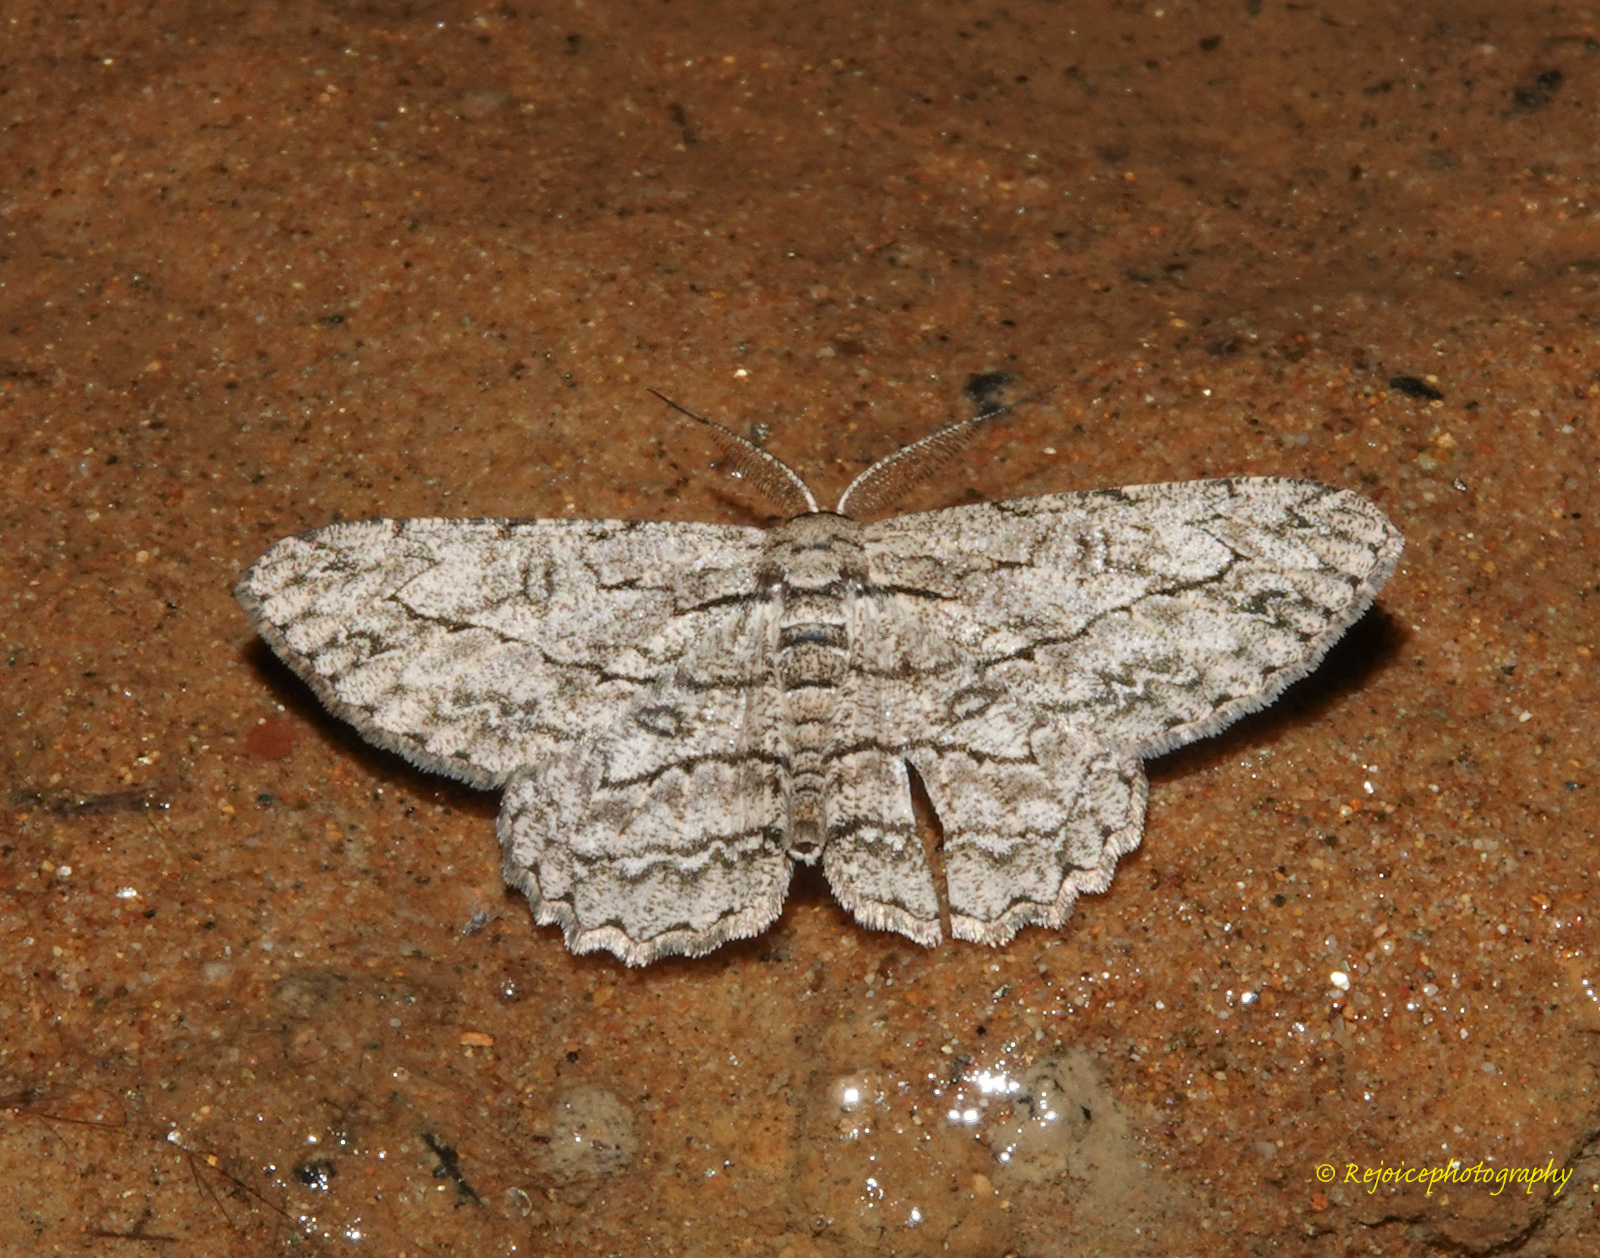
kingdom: Animalia
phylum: Arthropoda
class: Insecta
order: Lepidoptera
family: Geometridae
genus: Hypomecis
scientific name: Hypomecis transcissa
